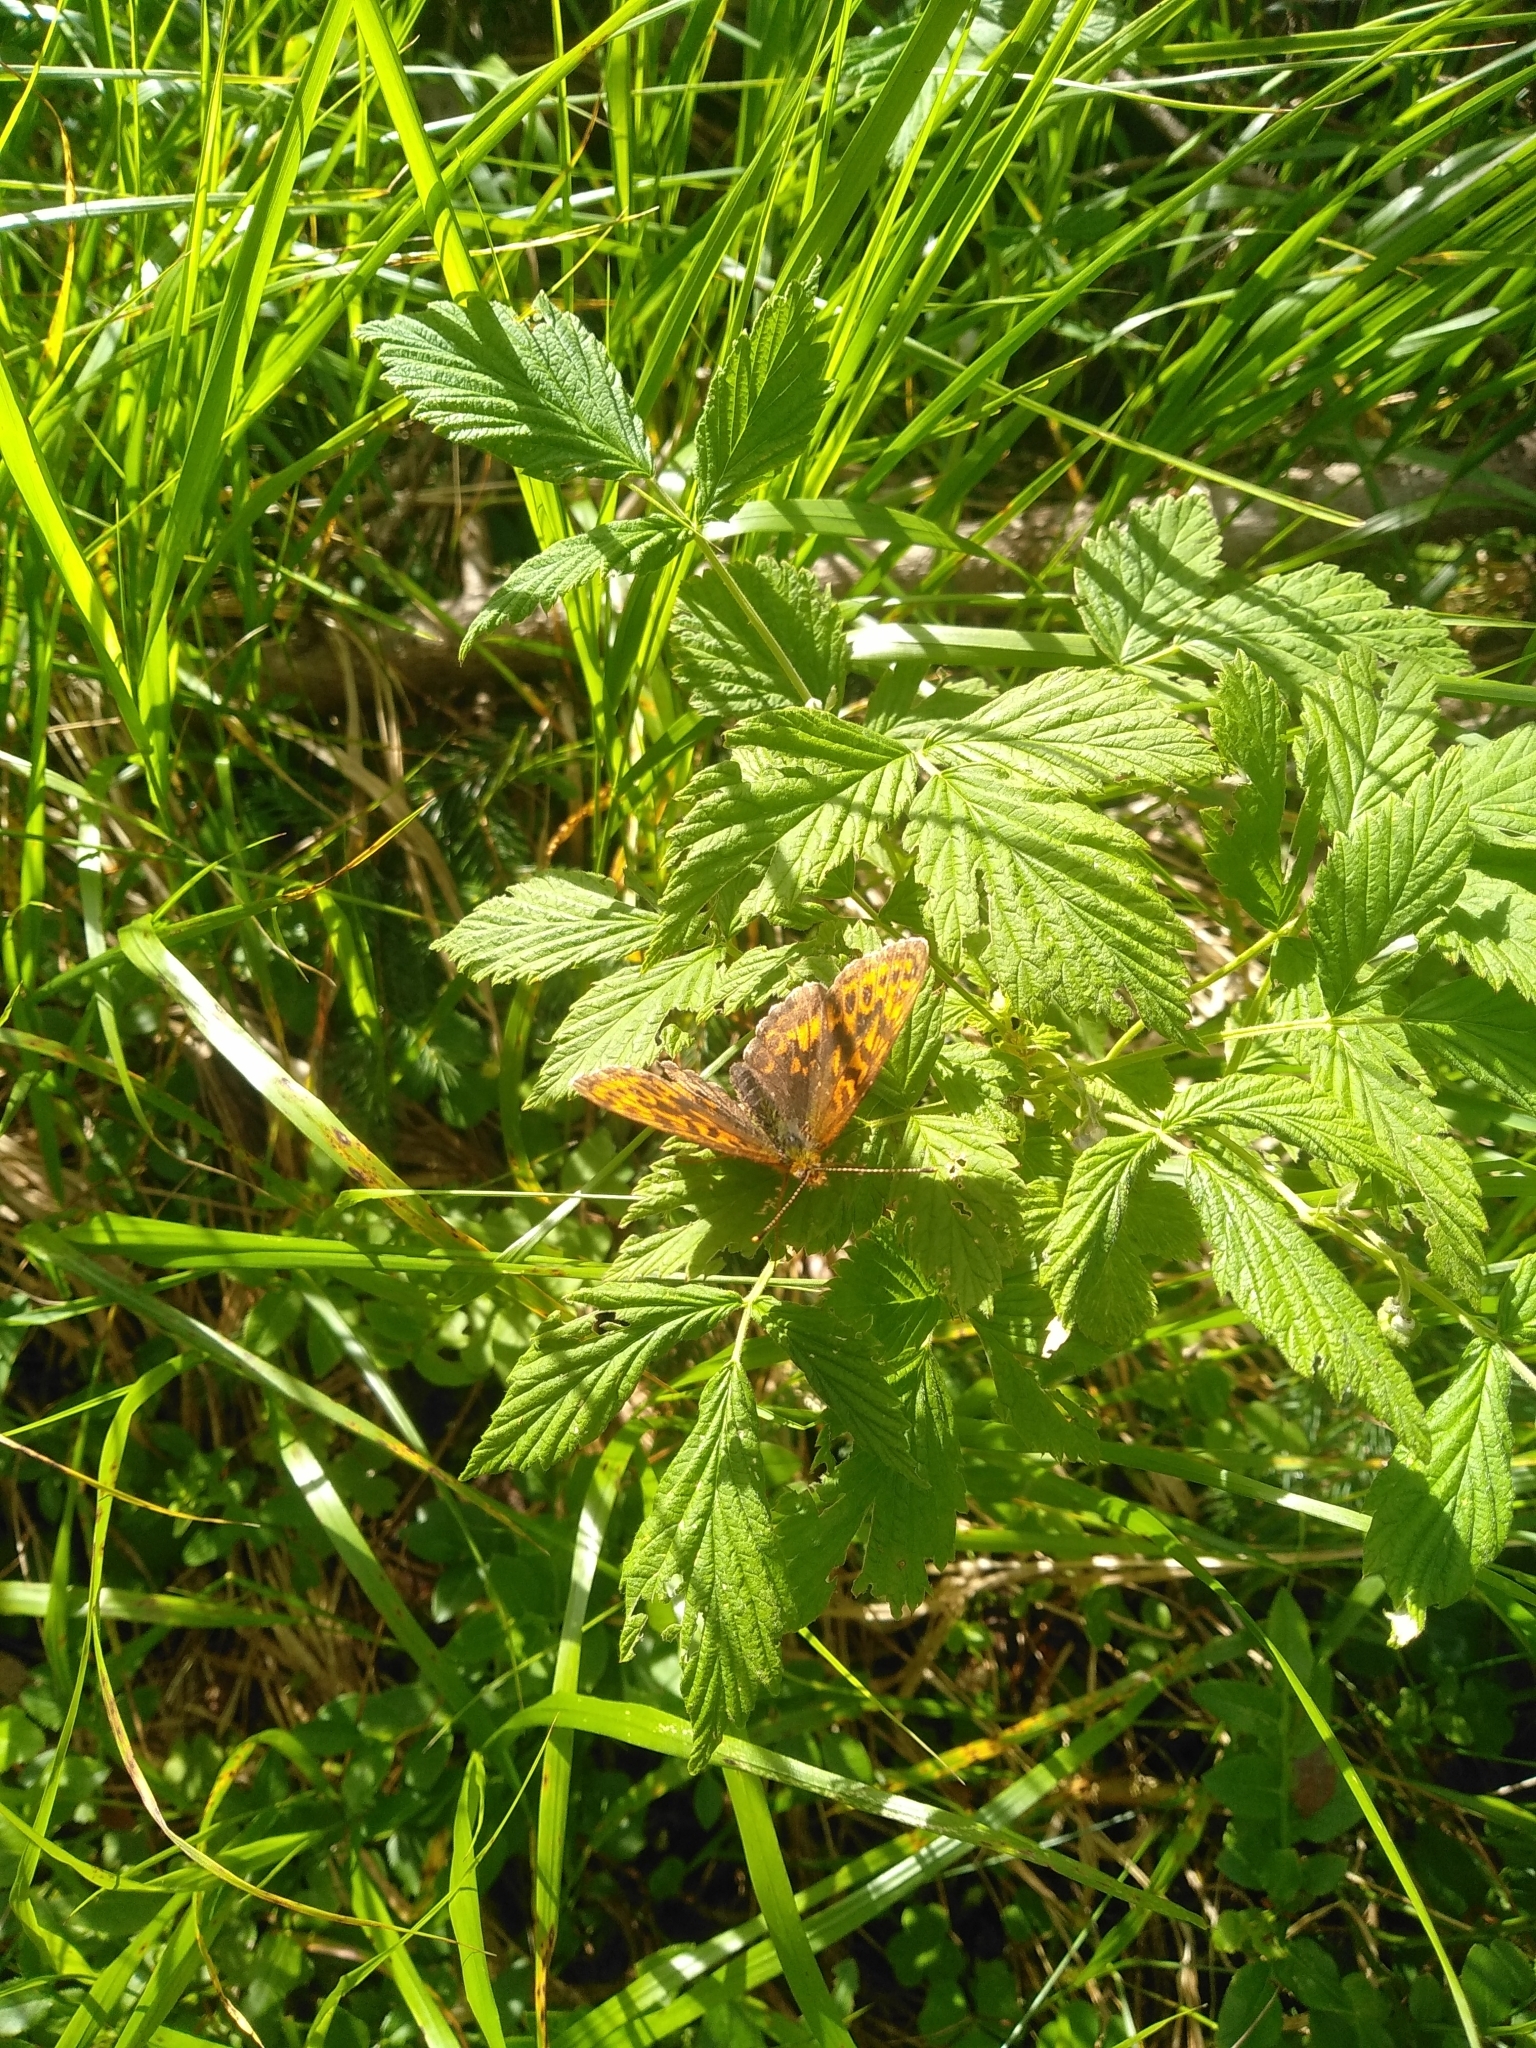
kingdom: Animalia
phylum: Arthropoda
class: Insecta
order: Lepidoptera
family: Nymphalidae
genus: Boloria
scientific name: Boloria thore
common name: Thor's fritillary
